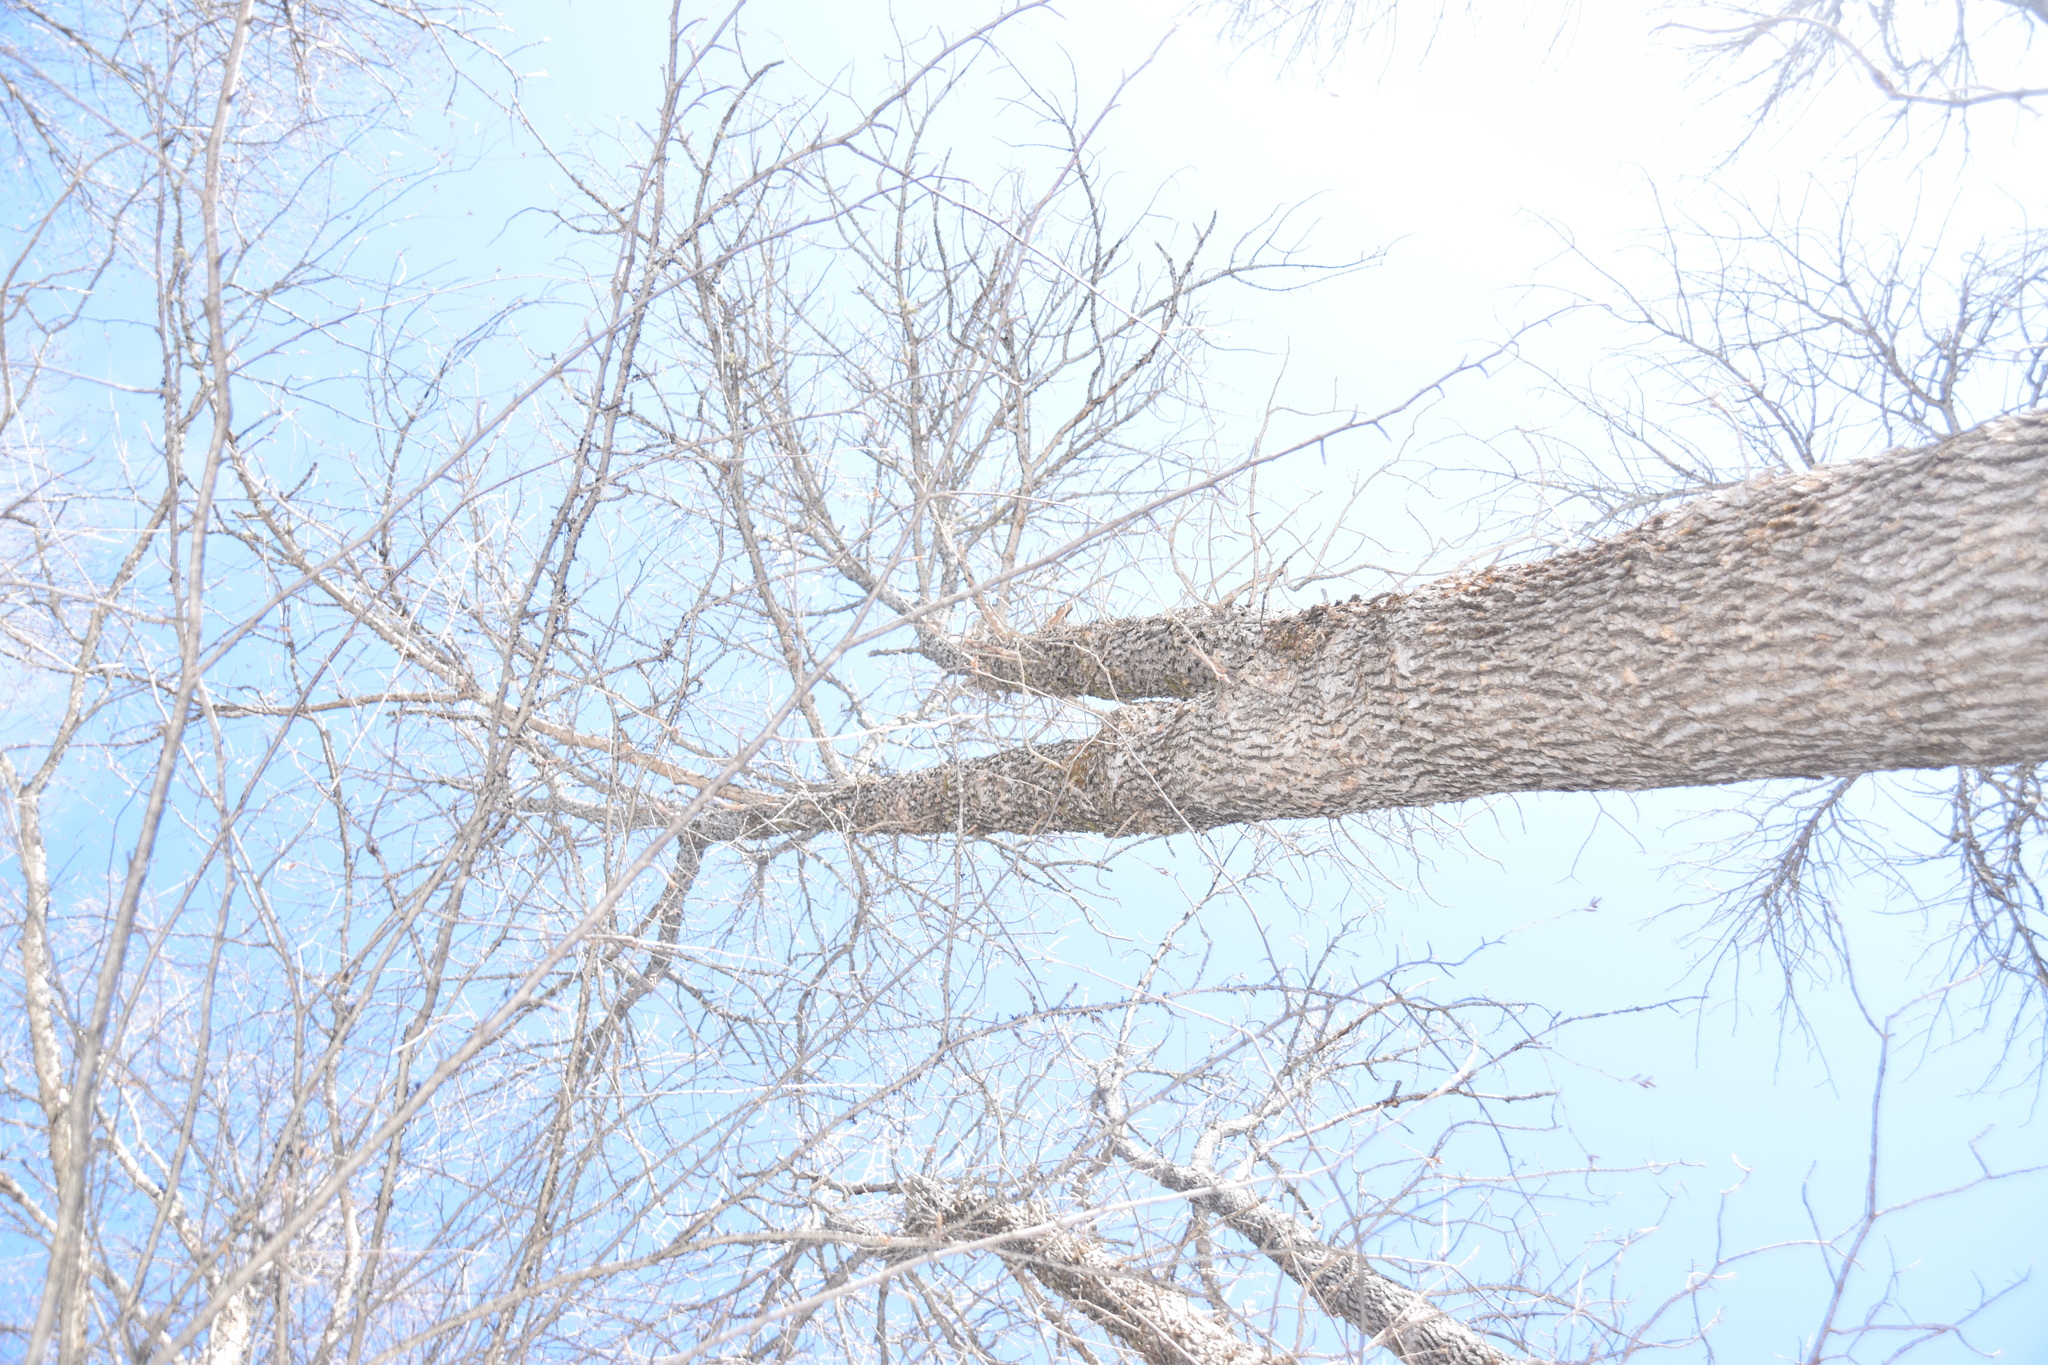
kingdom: Plantae
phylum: Tracheophyta
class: Magnoliopsida
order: Lamiales
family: Oleaceae
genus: Fraxinus
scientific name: Fraxinus nigra
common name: Black ash
